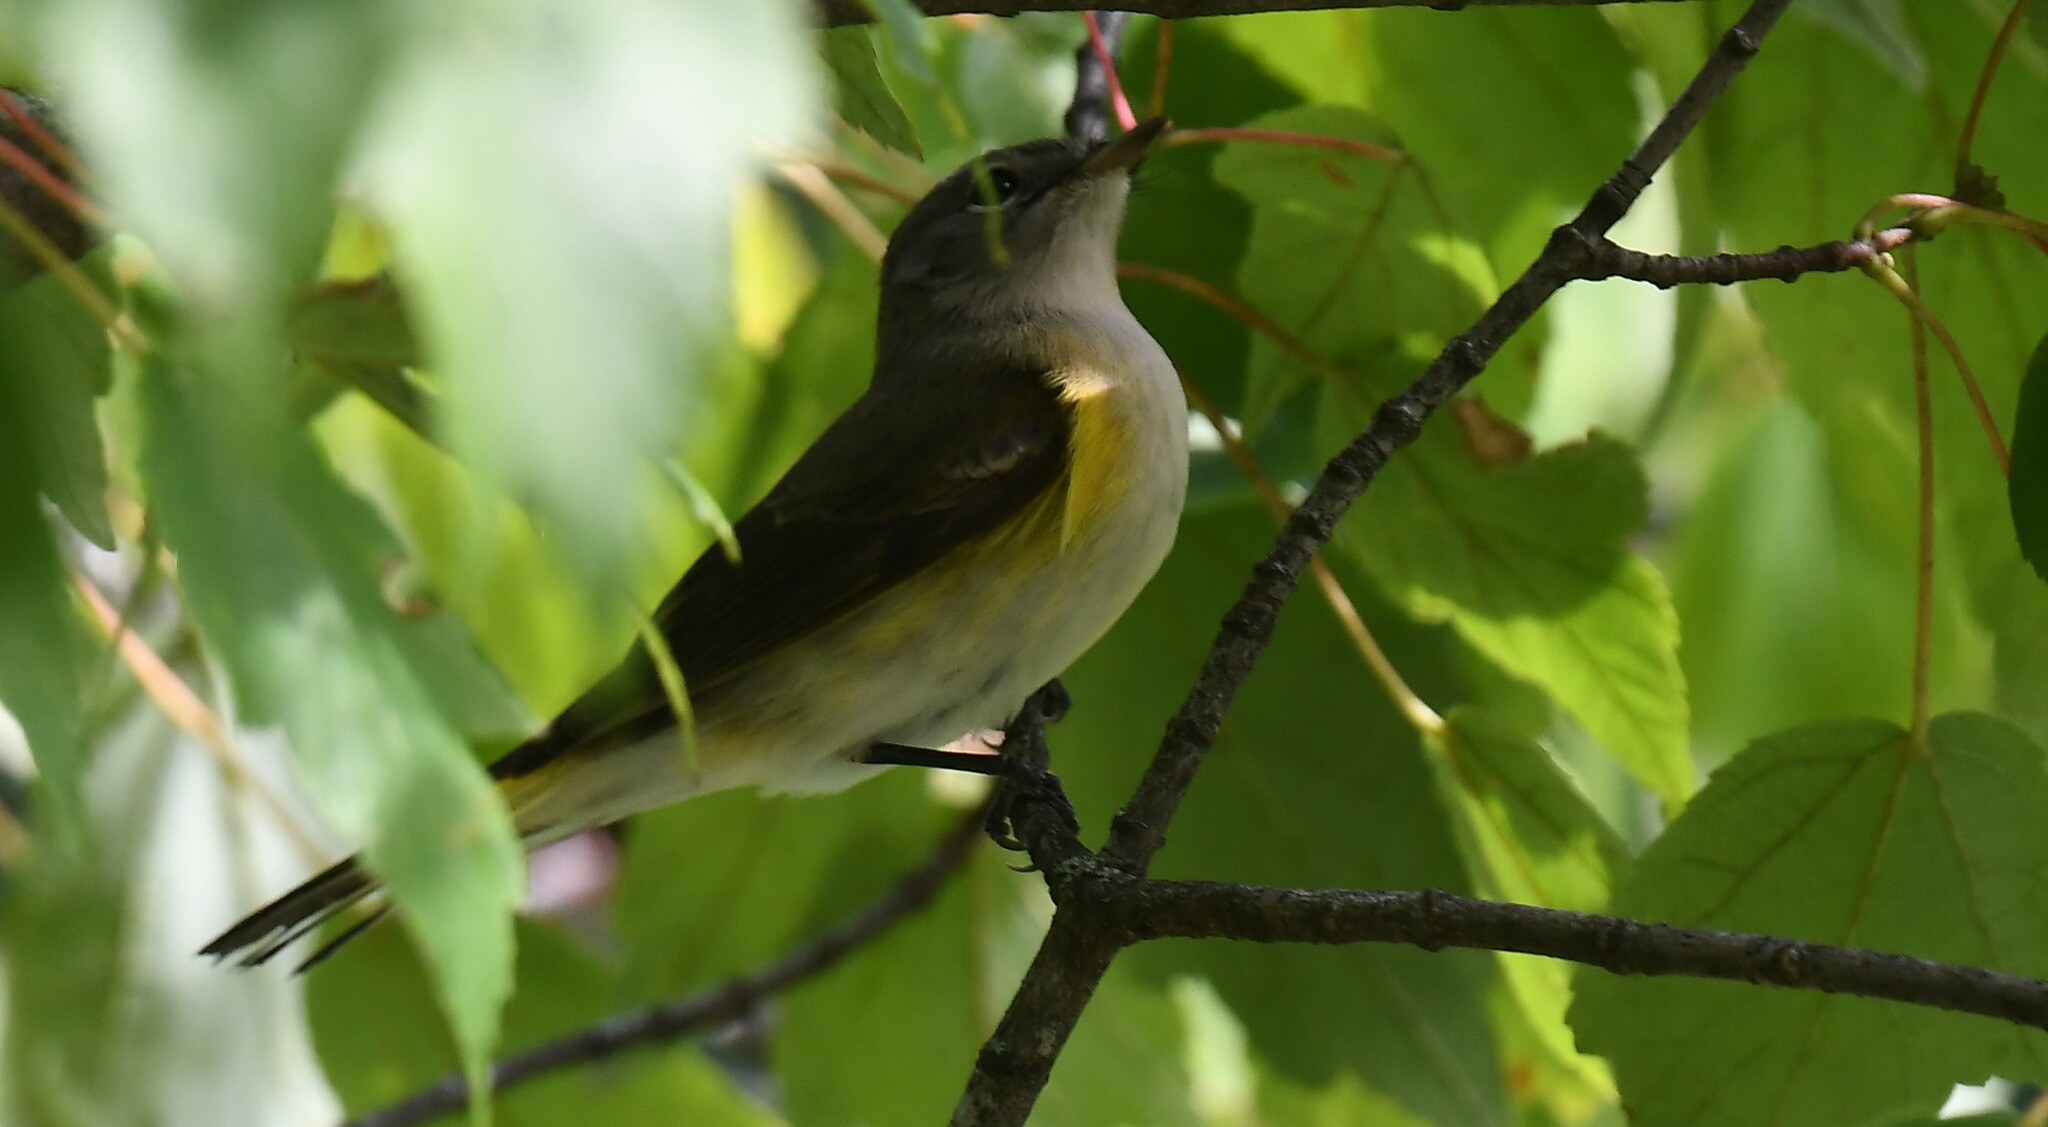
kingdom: Animalia
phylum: Chordata
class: Aves
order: Passeriformes
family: Parulidae
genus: Setophaga
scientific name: Setophaga ruticilla
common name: American redstart
